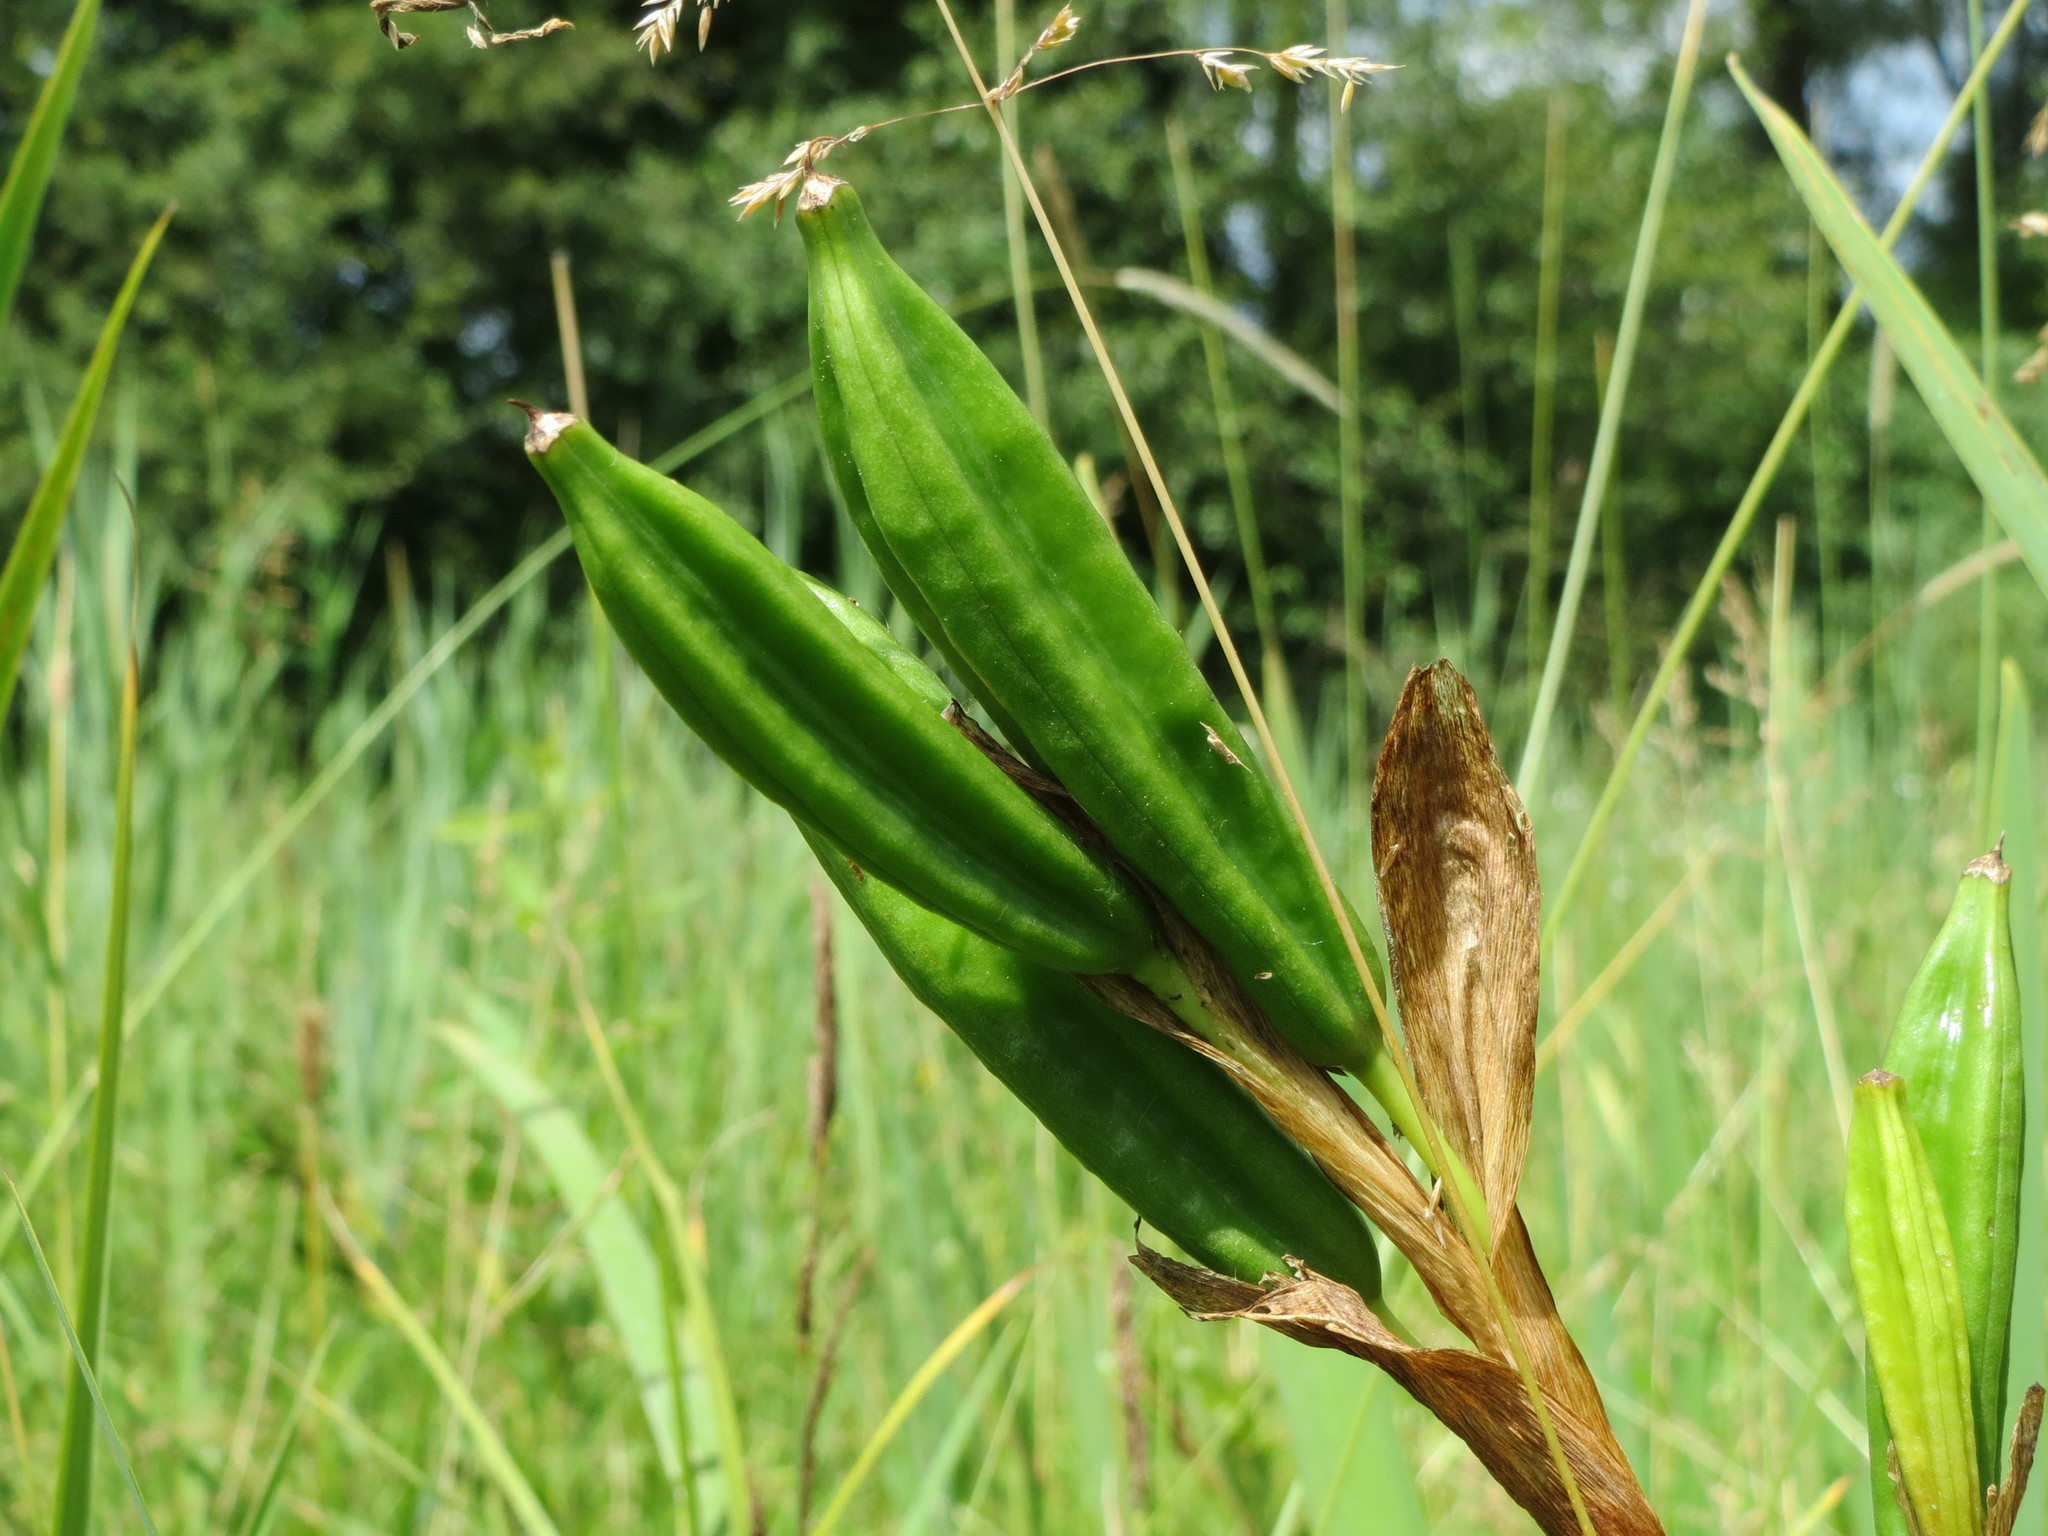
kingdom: Plantae
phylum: Tracheophyta
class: Liliopsida
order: Asparagales
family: Iridaceae
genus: Iris
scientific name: Iris pseudacorus
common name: Yellow flag
